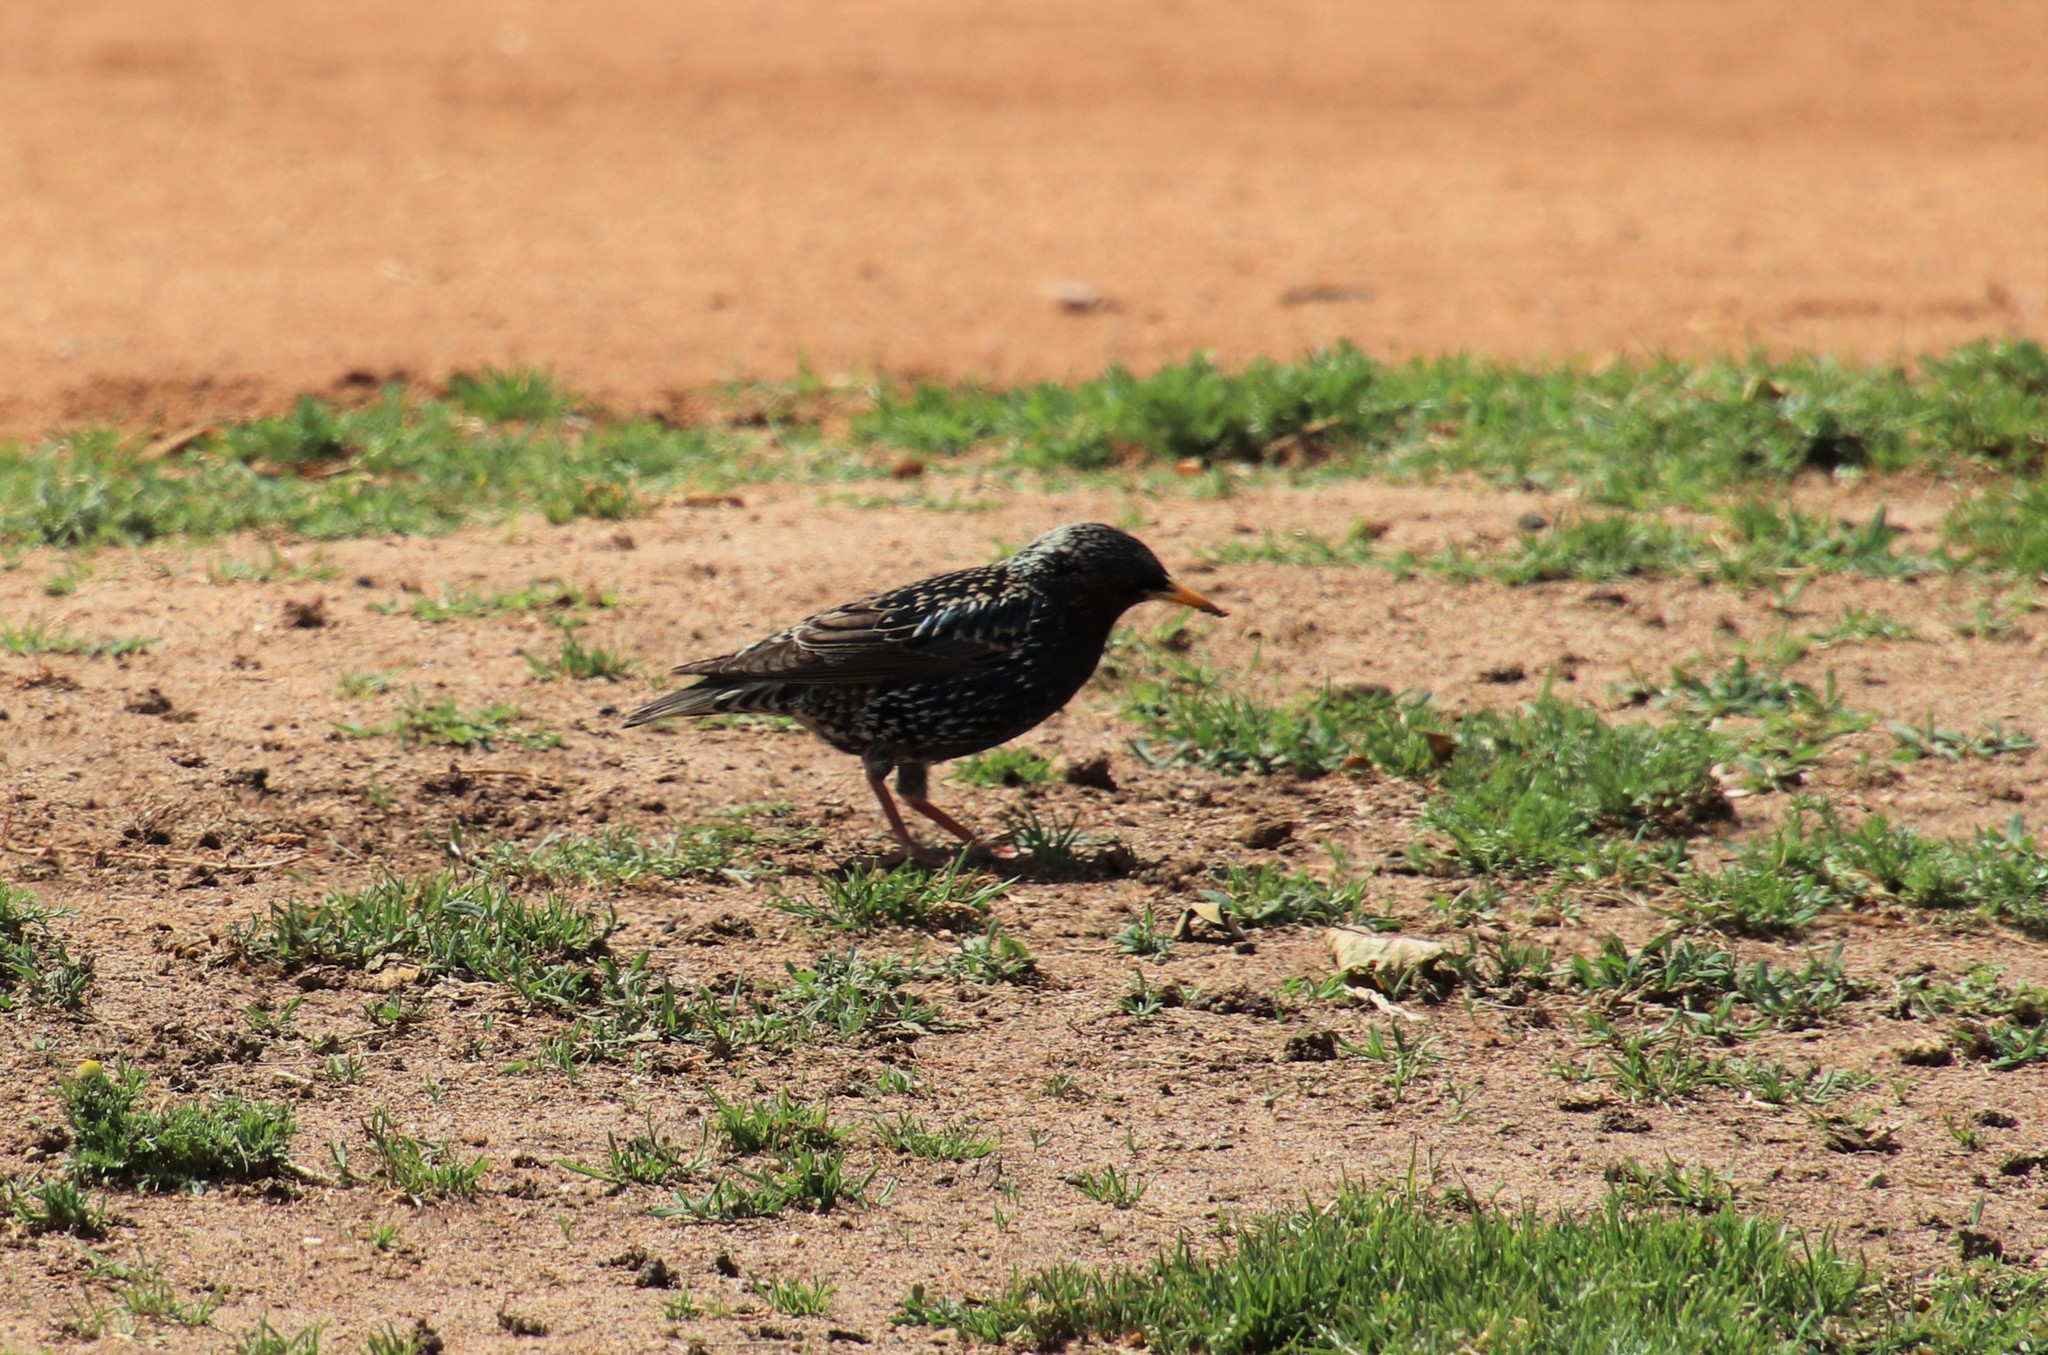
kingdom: Animalia
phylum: Chordata
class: Aves
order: Passeriformes
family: Sturnidae
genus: Sturnus
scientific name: Sturnus vulgaris
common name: Common starling
